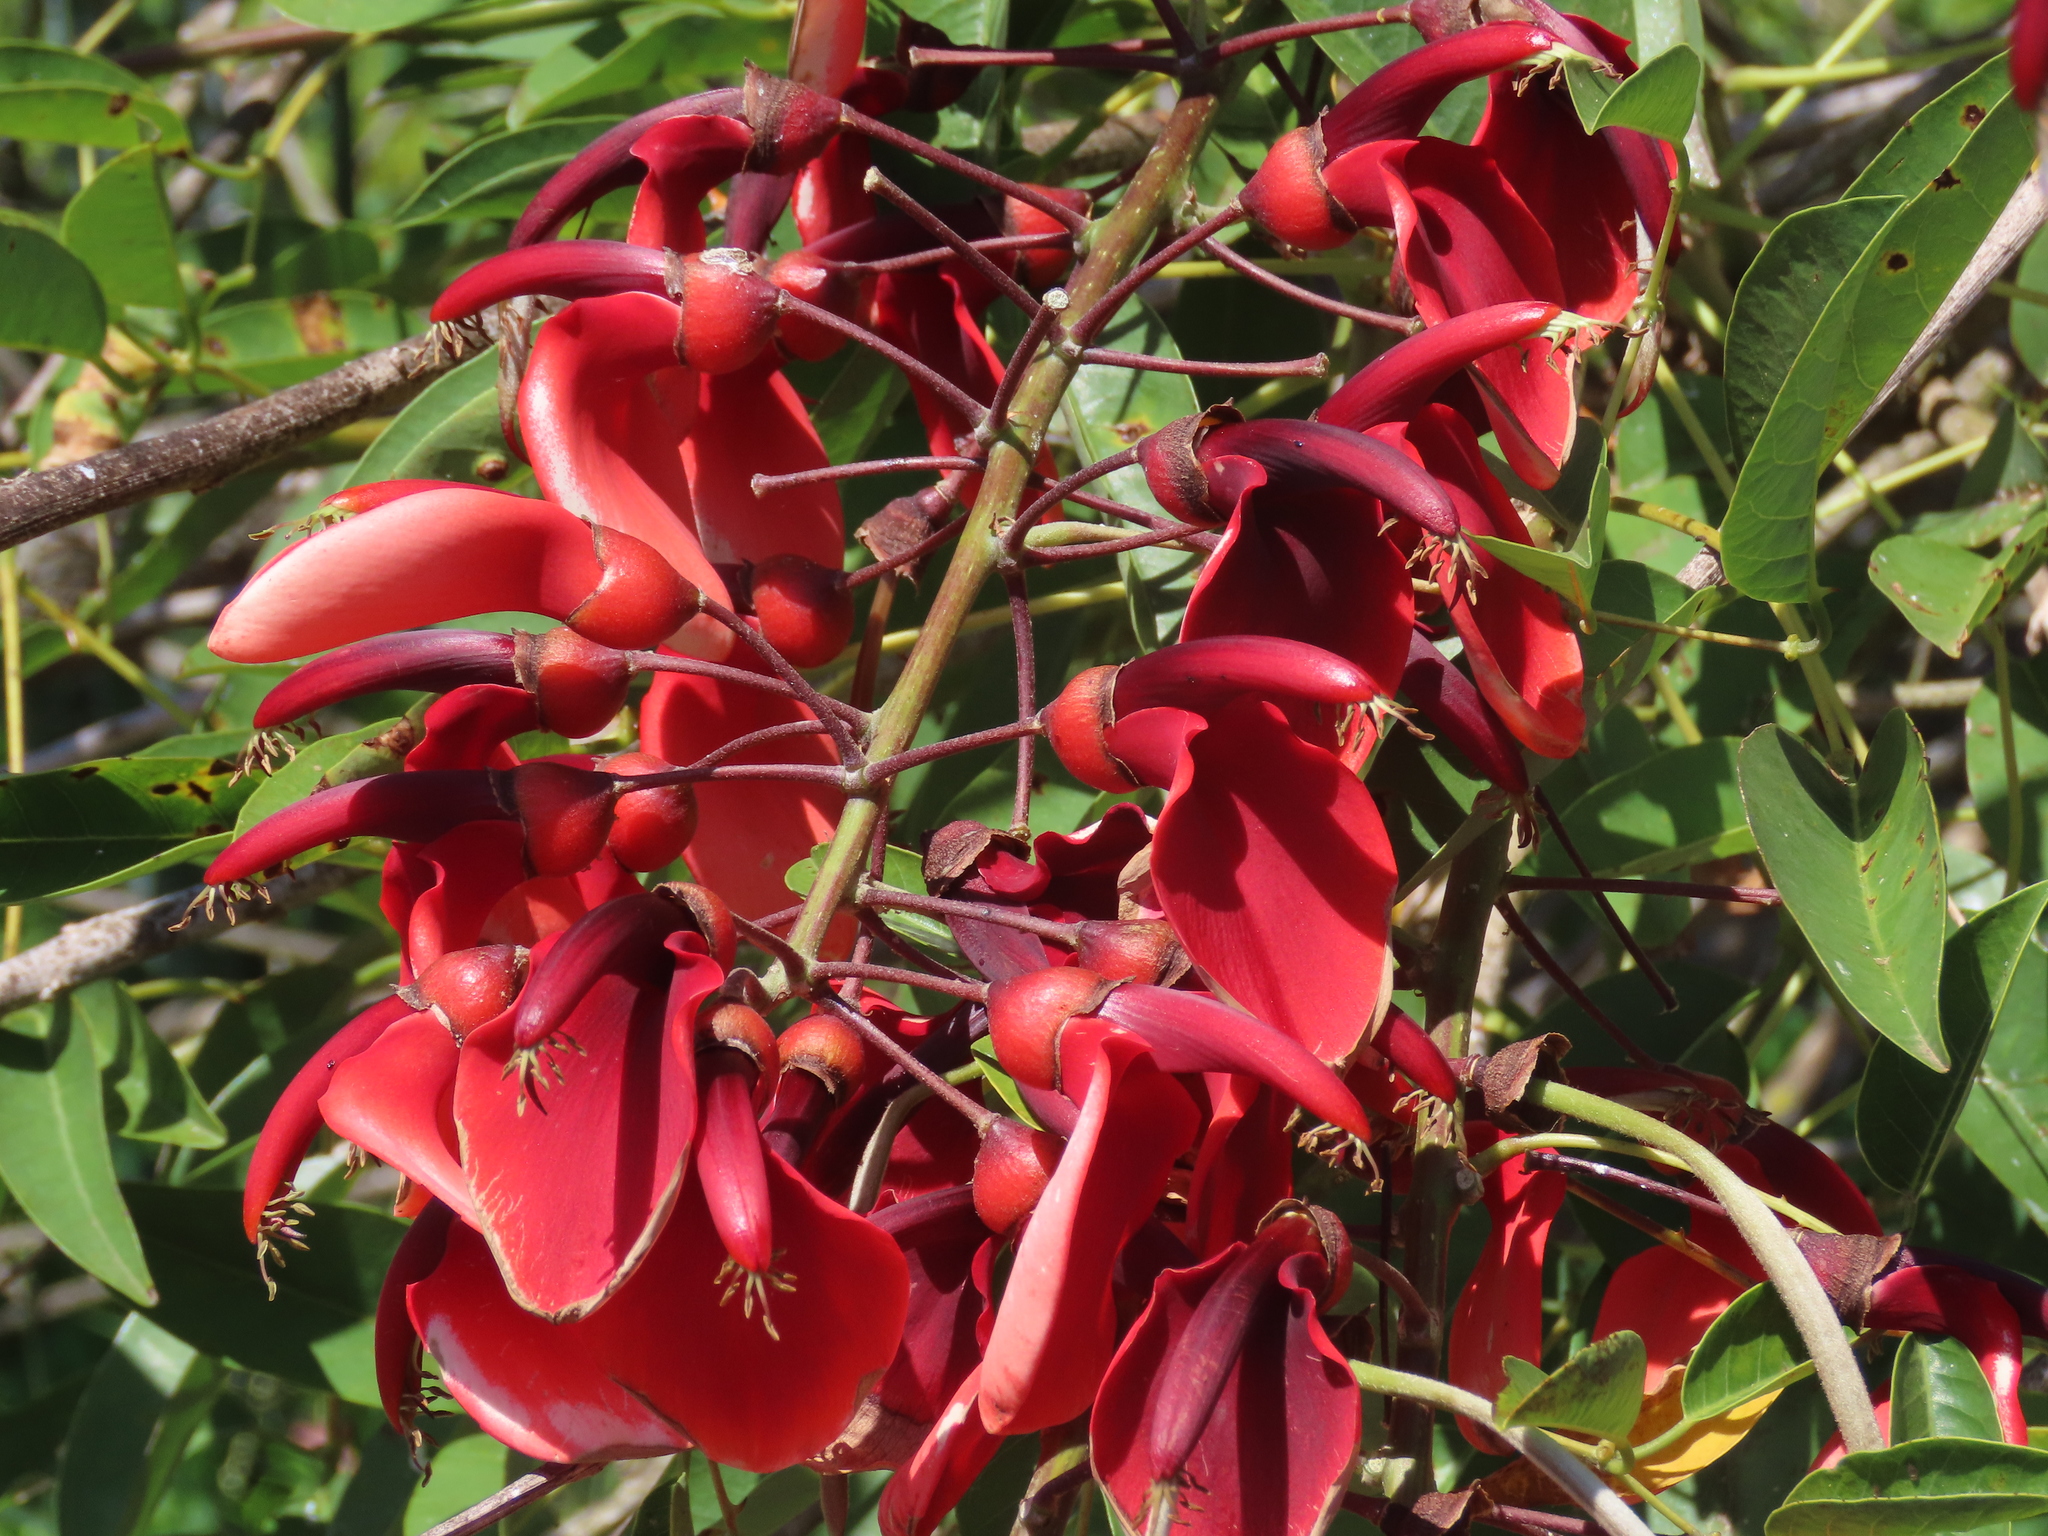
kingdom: Plantae
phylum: Tracheophyta
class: Magnoliopsida
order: Fabales
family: Fabaceae
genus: Erythrina
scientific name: Erythrina crista-galli
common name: Cockspur coral tree
